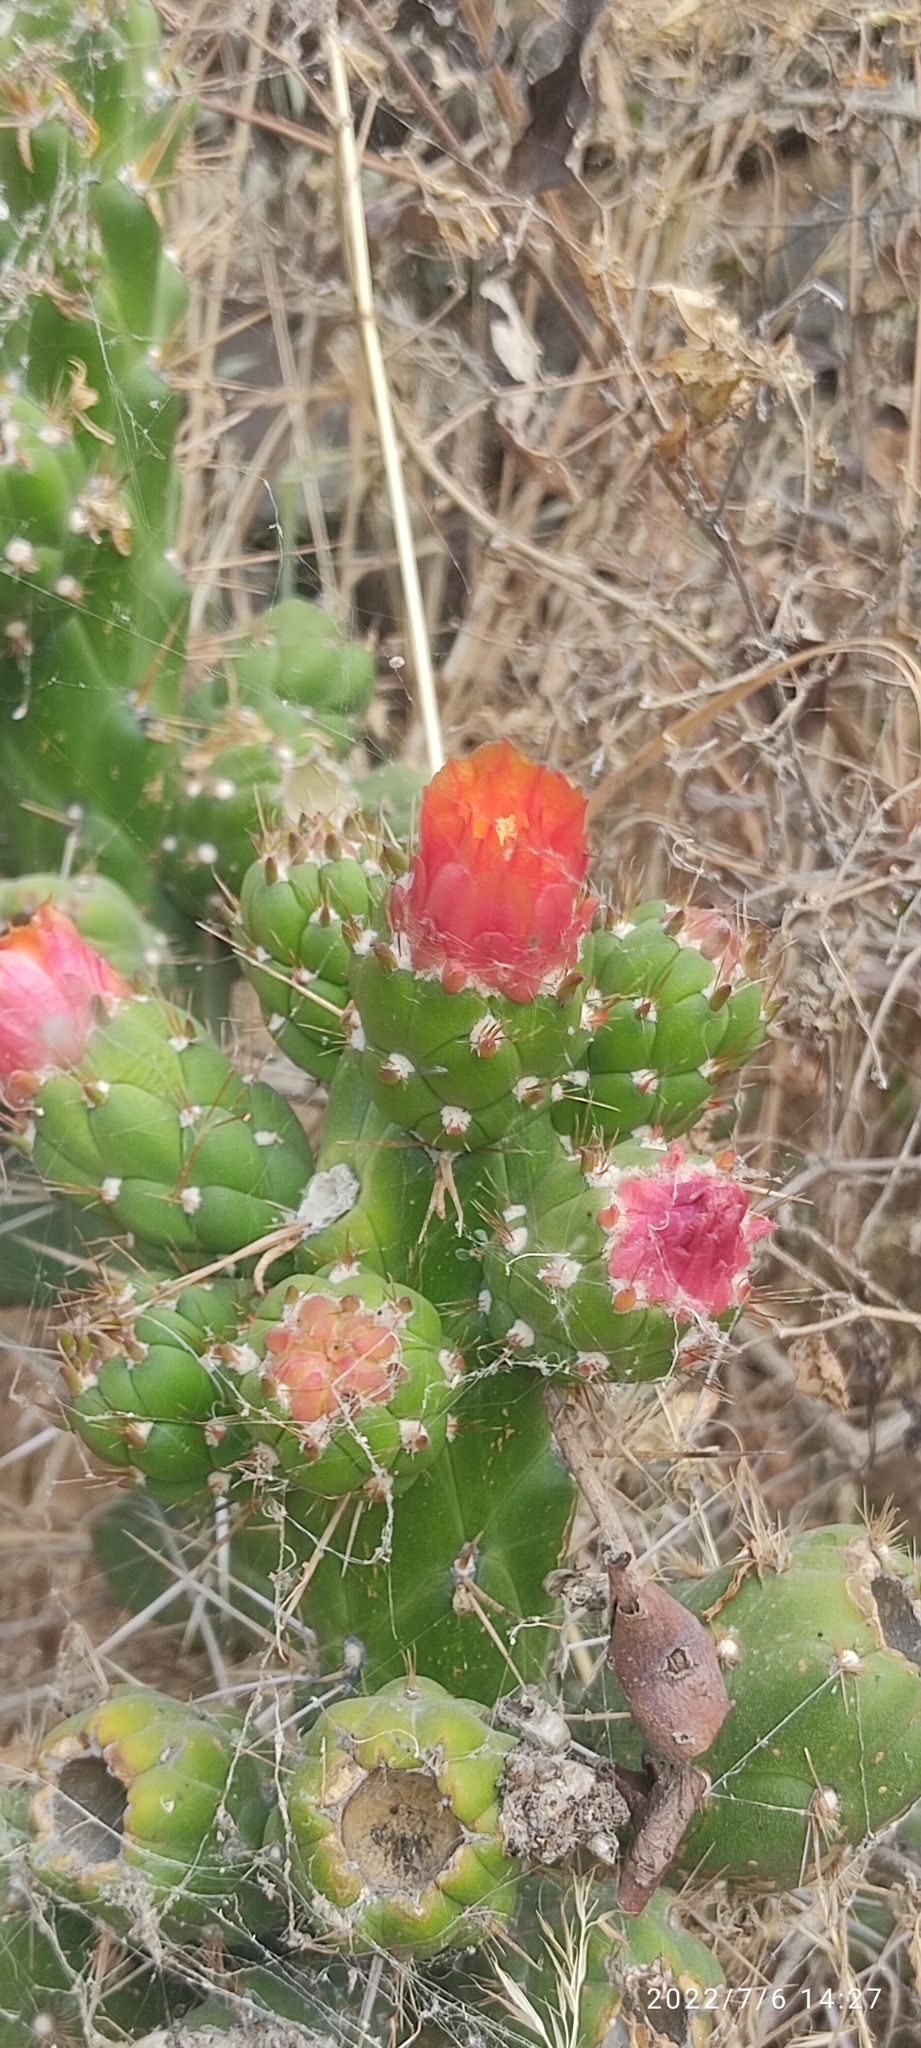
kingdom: Plantae
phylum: Tracheophyta
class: Magnoliopsida
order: Caryophyllales
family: Cactaceae
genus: Austrocylindropuntia
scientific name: Austrocylindropuntia subulata
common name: Eve's needle cactus
